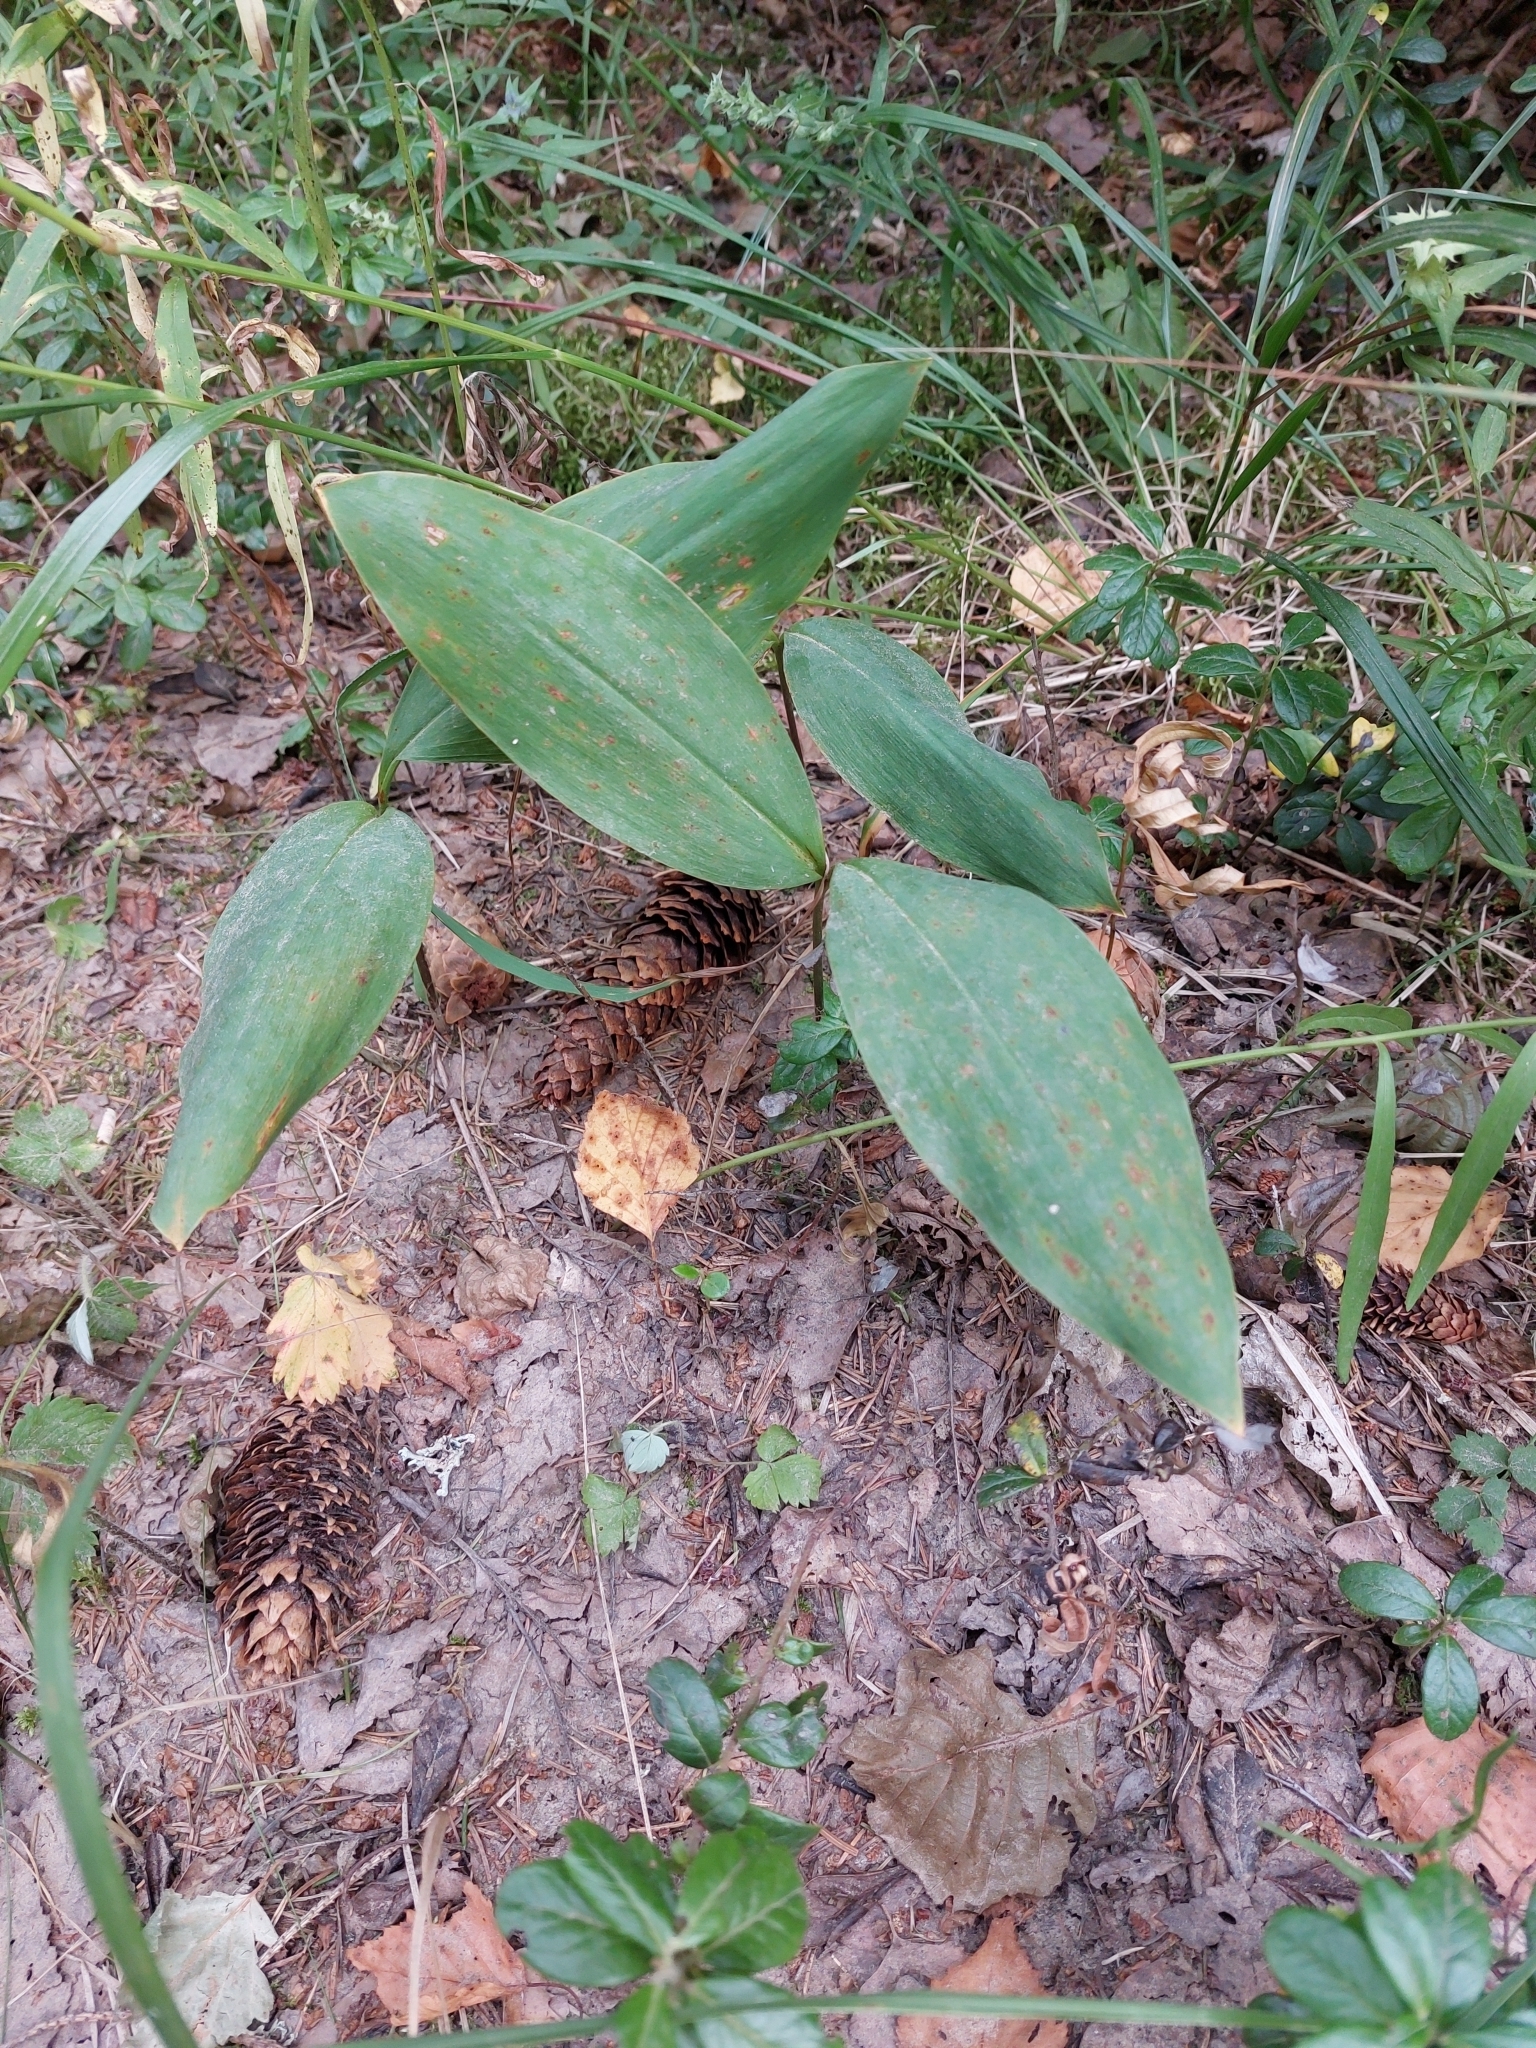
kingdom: Plantae
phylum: Tracheophyta
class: Liliopsida
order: Asparagales
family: Asparagaceae
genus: Convallaria
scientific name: Convallaria majalis
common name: Lily-of-the-valley
